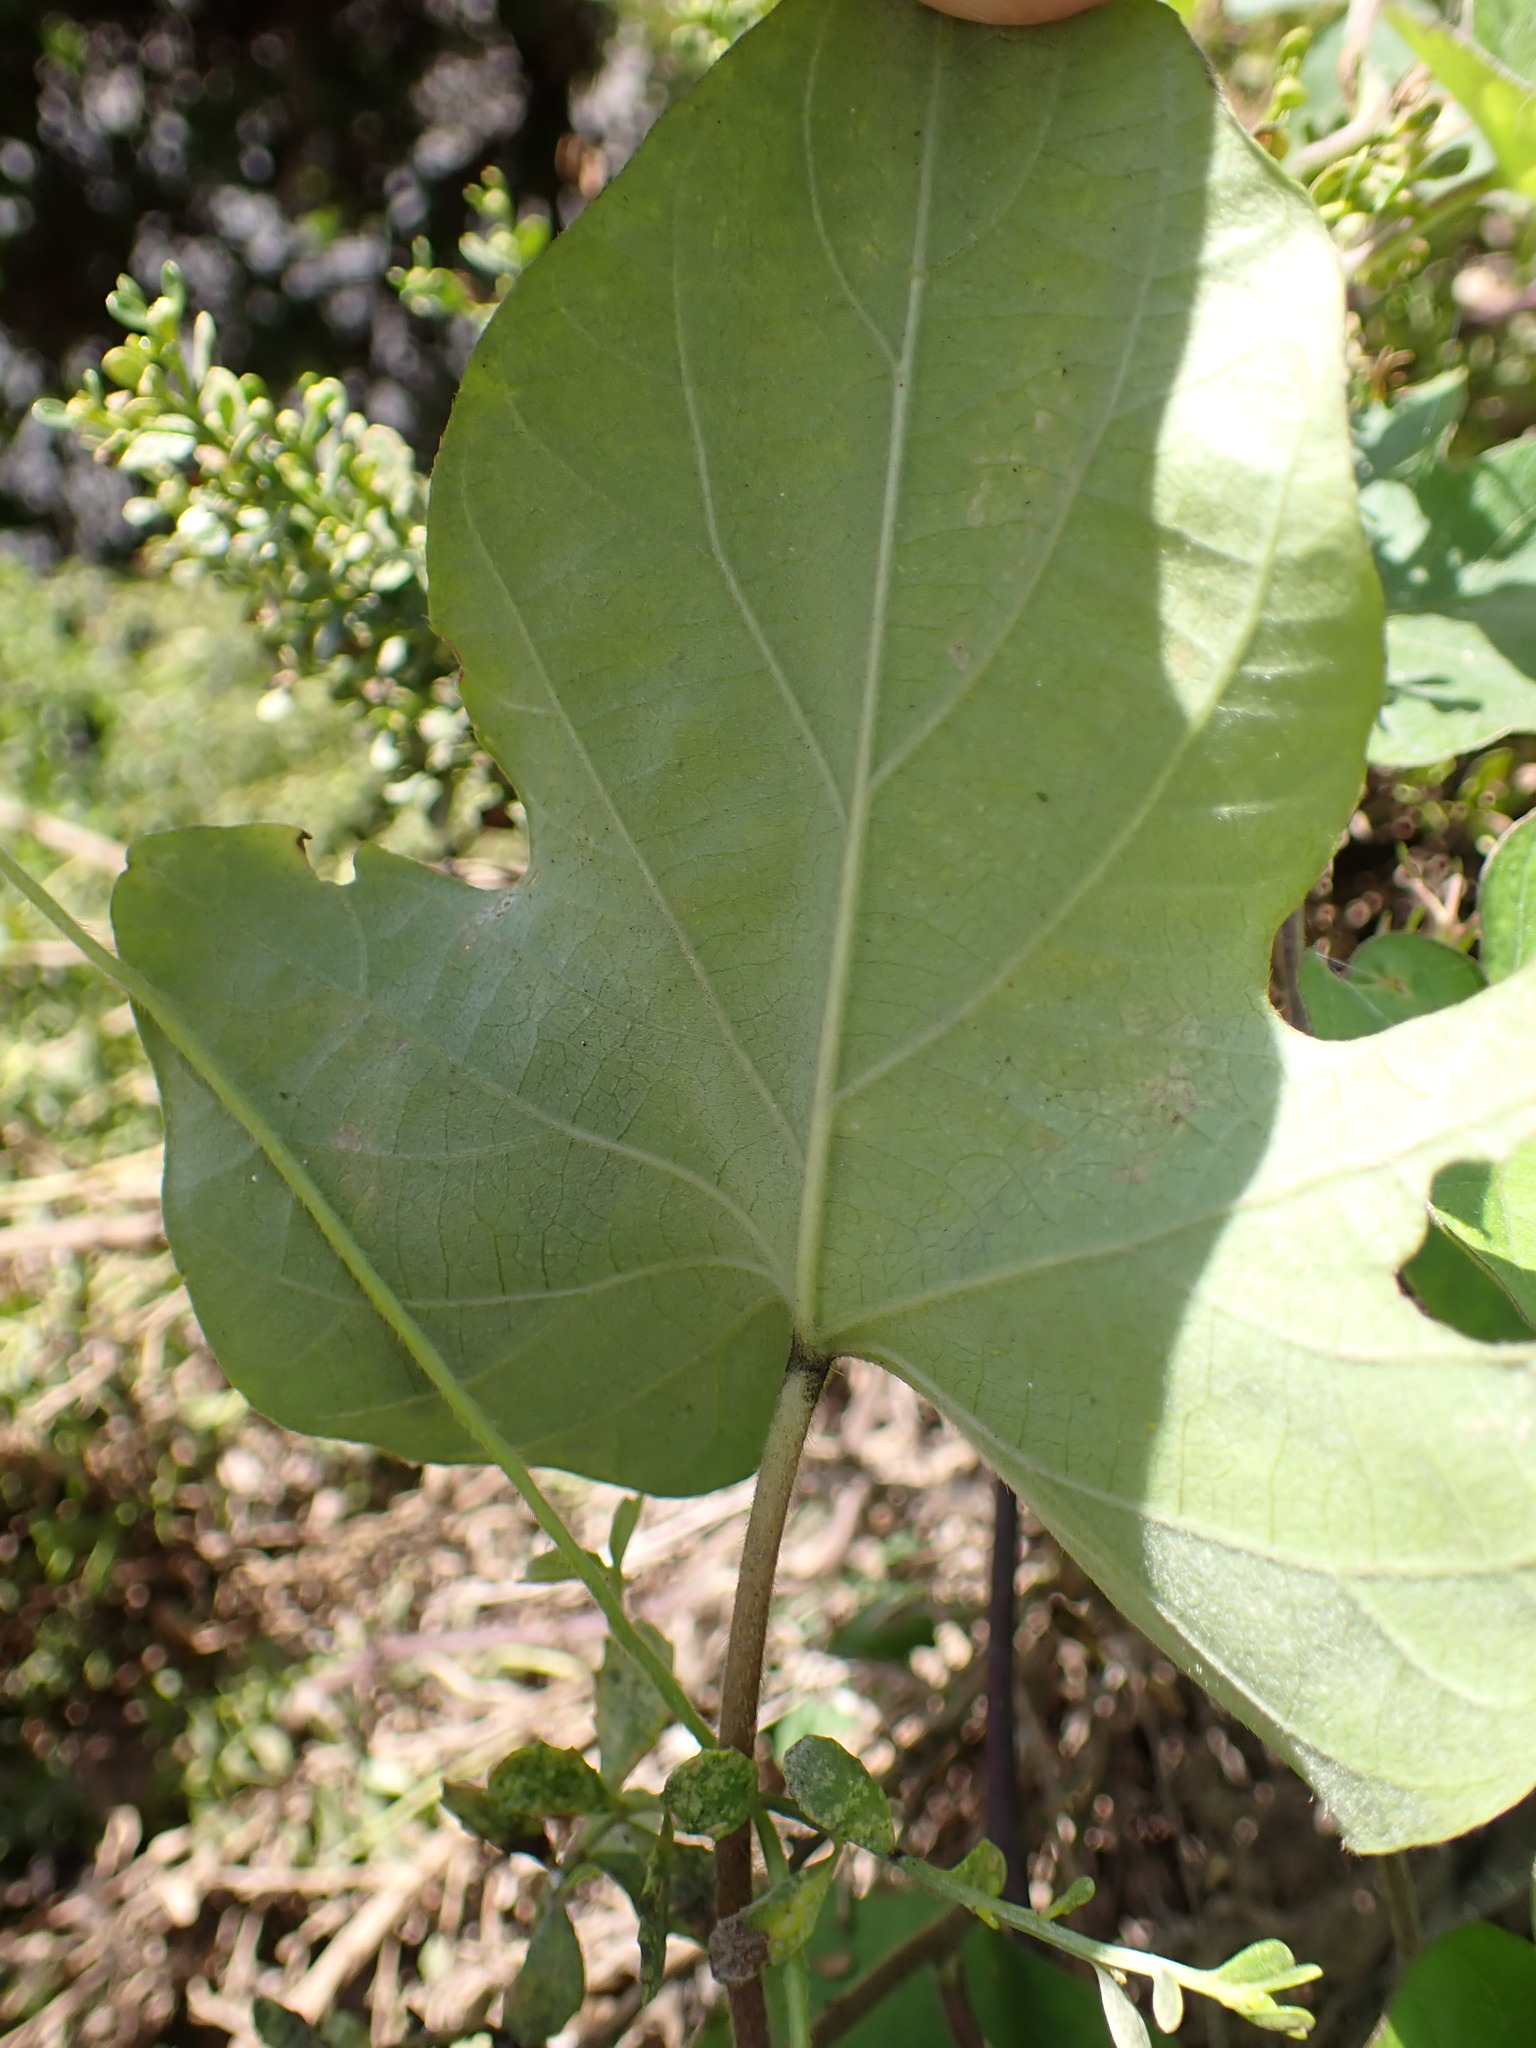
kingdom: Plantae
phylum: Tracheophyta
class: Magnoliopsida
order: Solanales
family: Convolvulaceae
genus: Ipomoea
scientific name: Ipomoea indica
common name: Blue dawnflower
